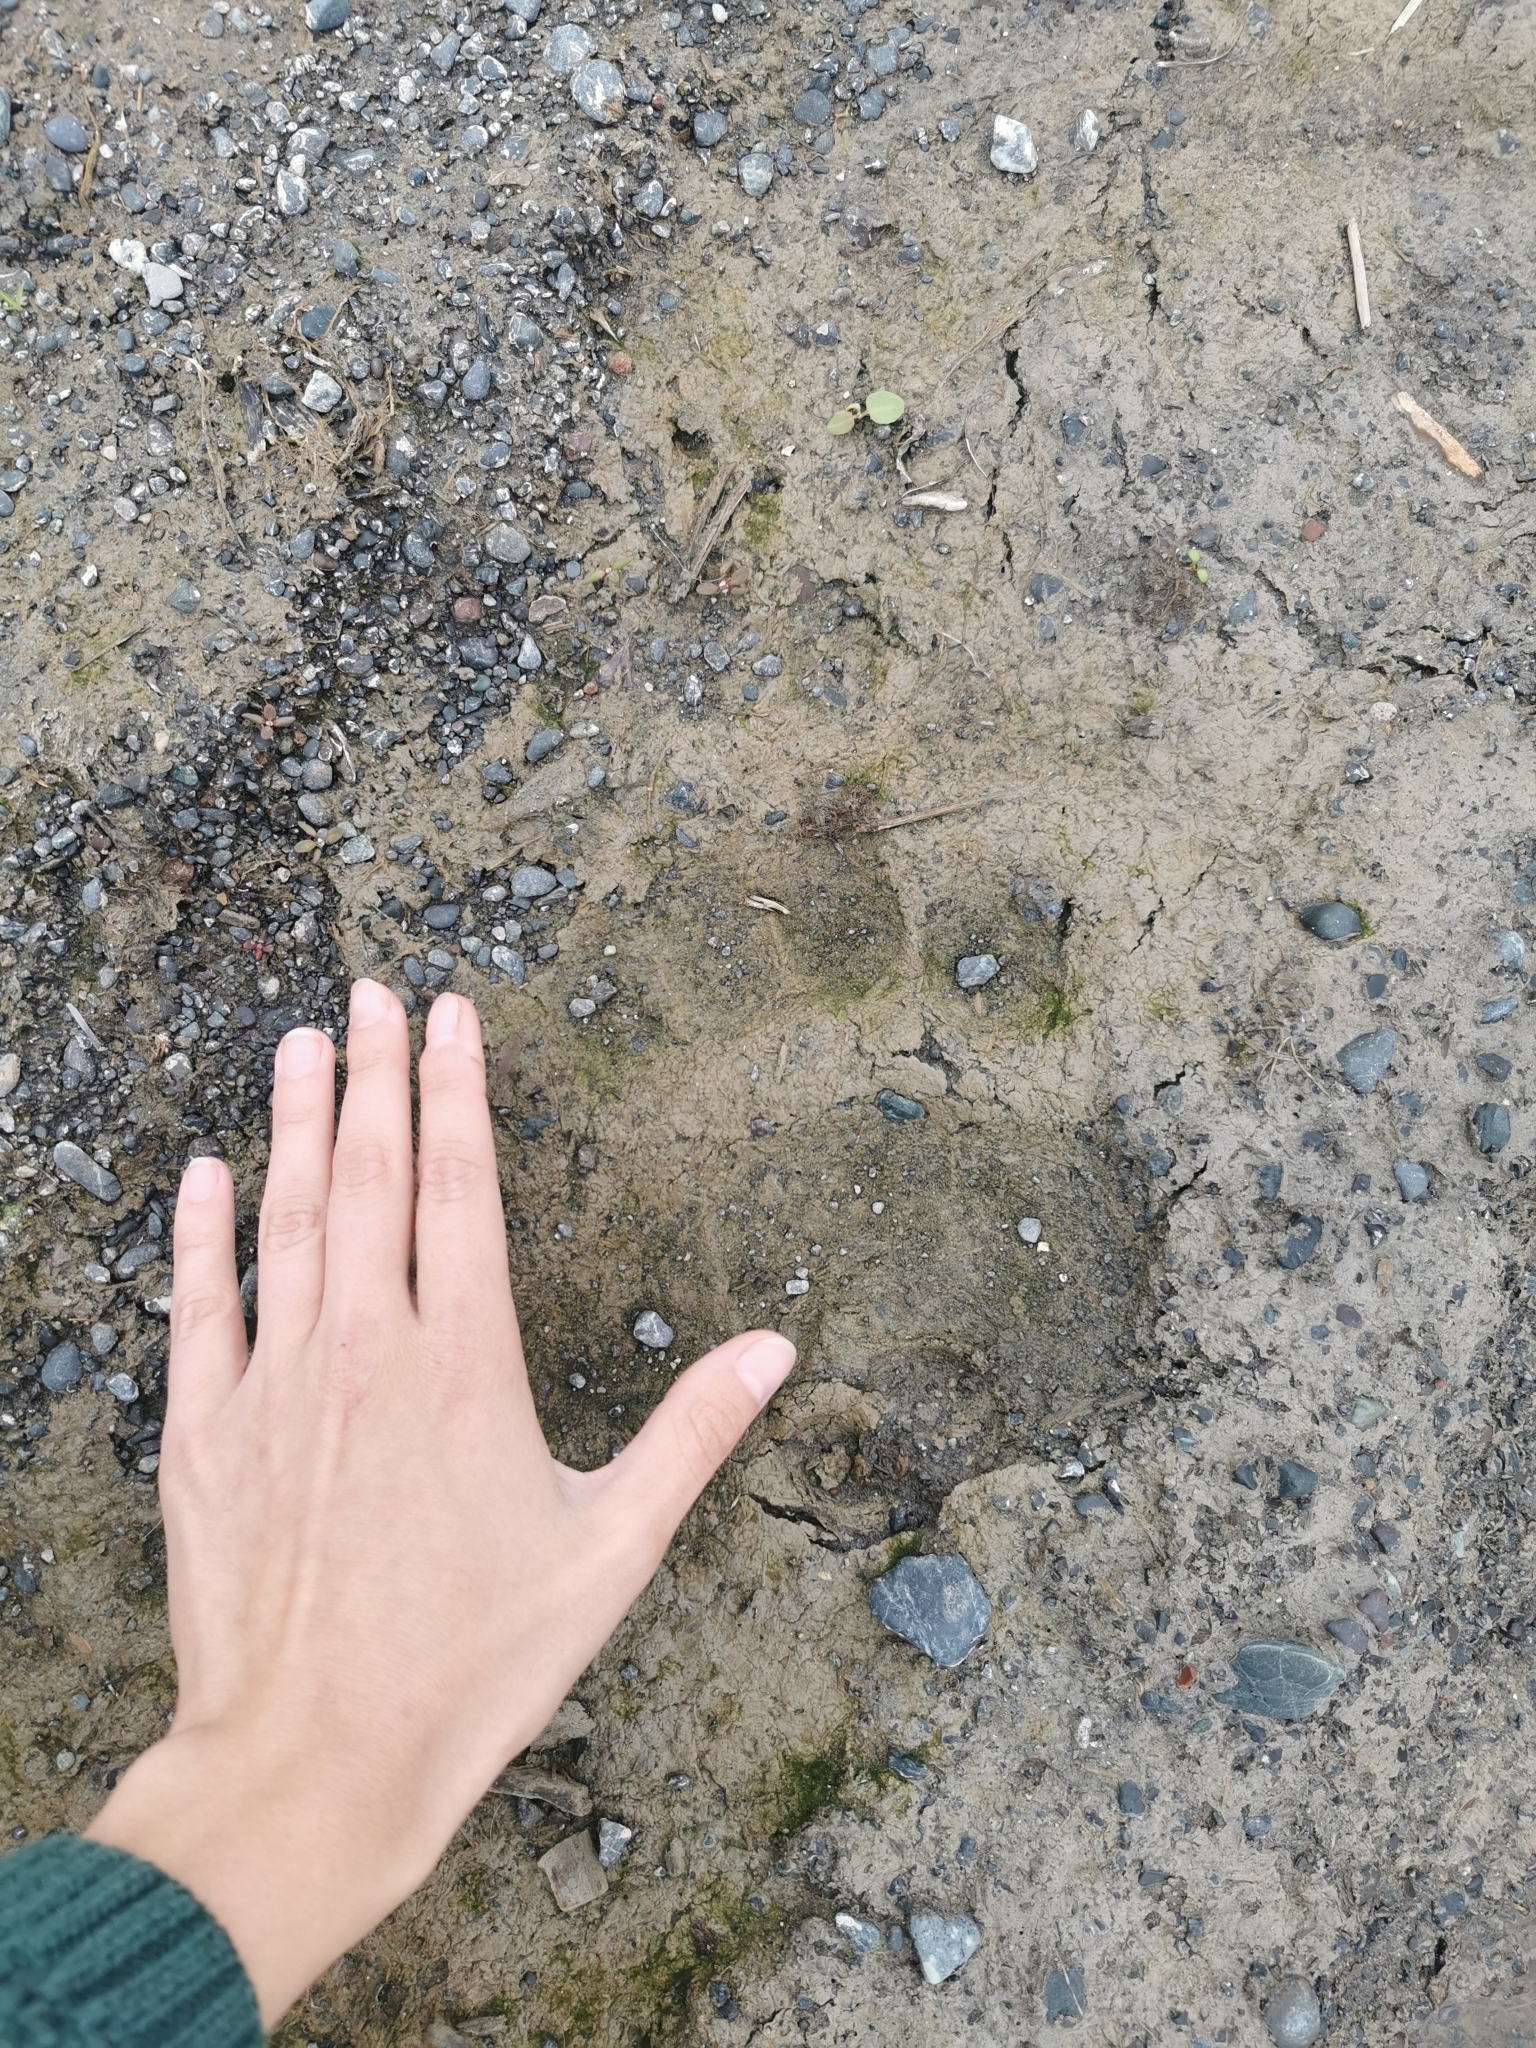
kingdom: Animalia
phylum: Chordata
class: Mammalia
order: Carnivora
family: Ursidae
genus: Ursus
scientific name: Ursus arctos
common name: Brown bear
